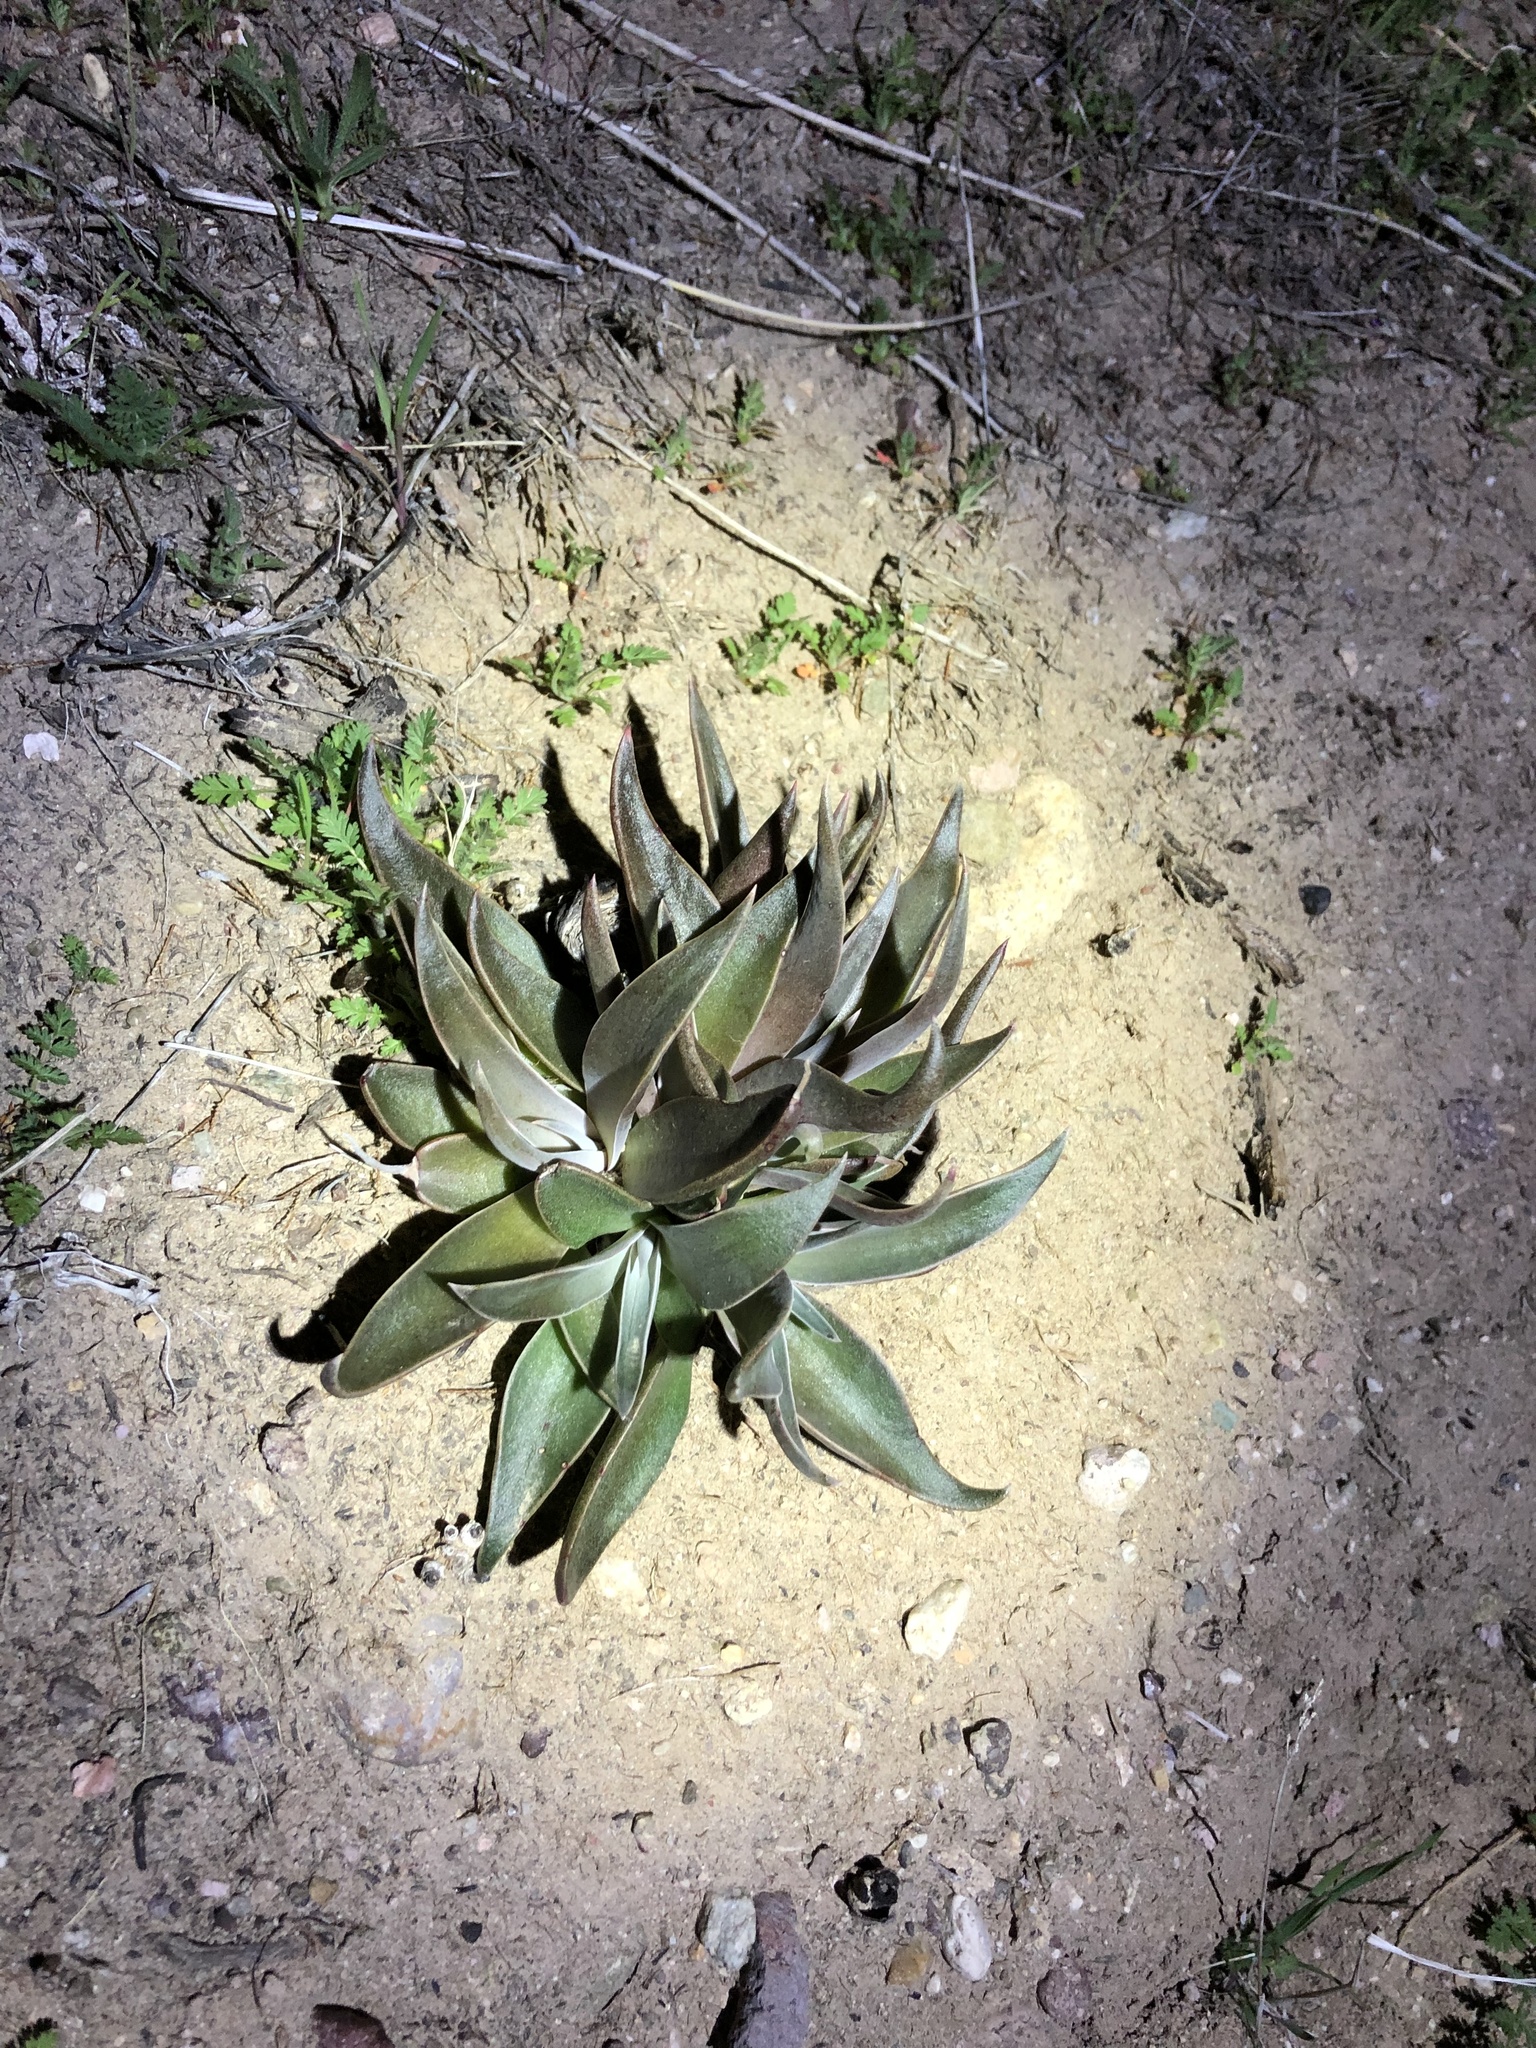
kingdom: Plantae
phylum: Tracheophyta
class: Magnoliopsida
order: Saxifragales
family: Crassulaceae
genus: Dudleya
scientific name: Dudleya lanceolata
